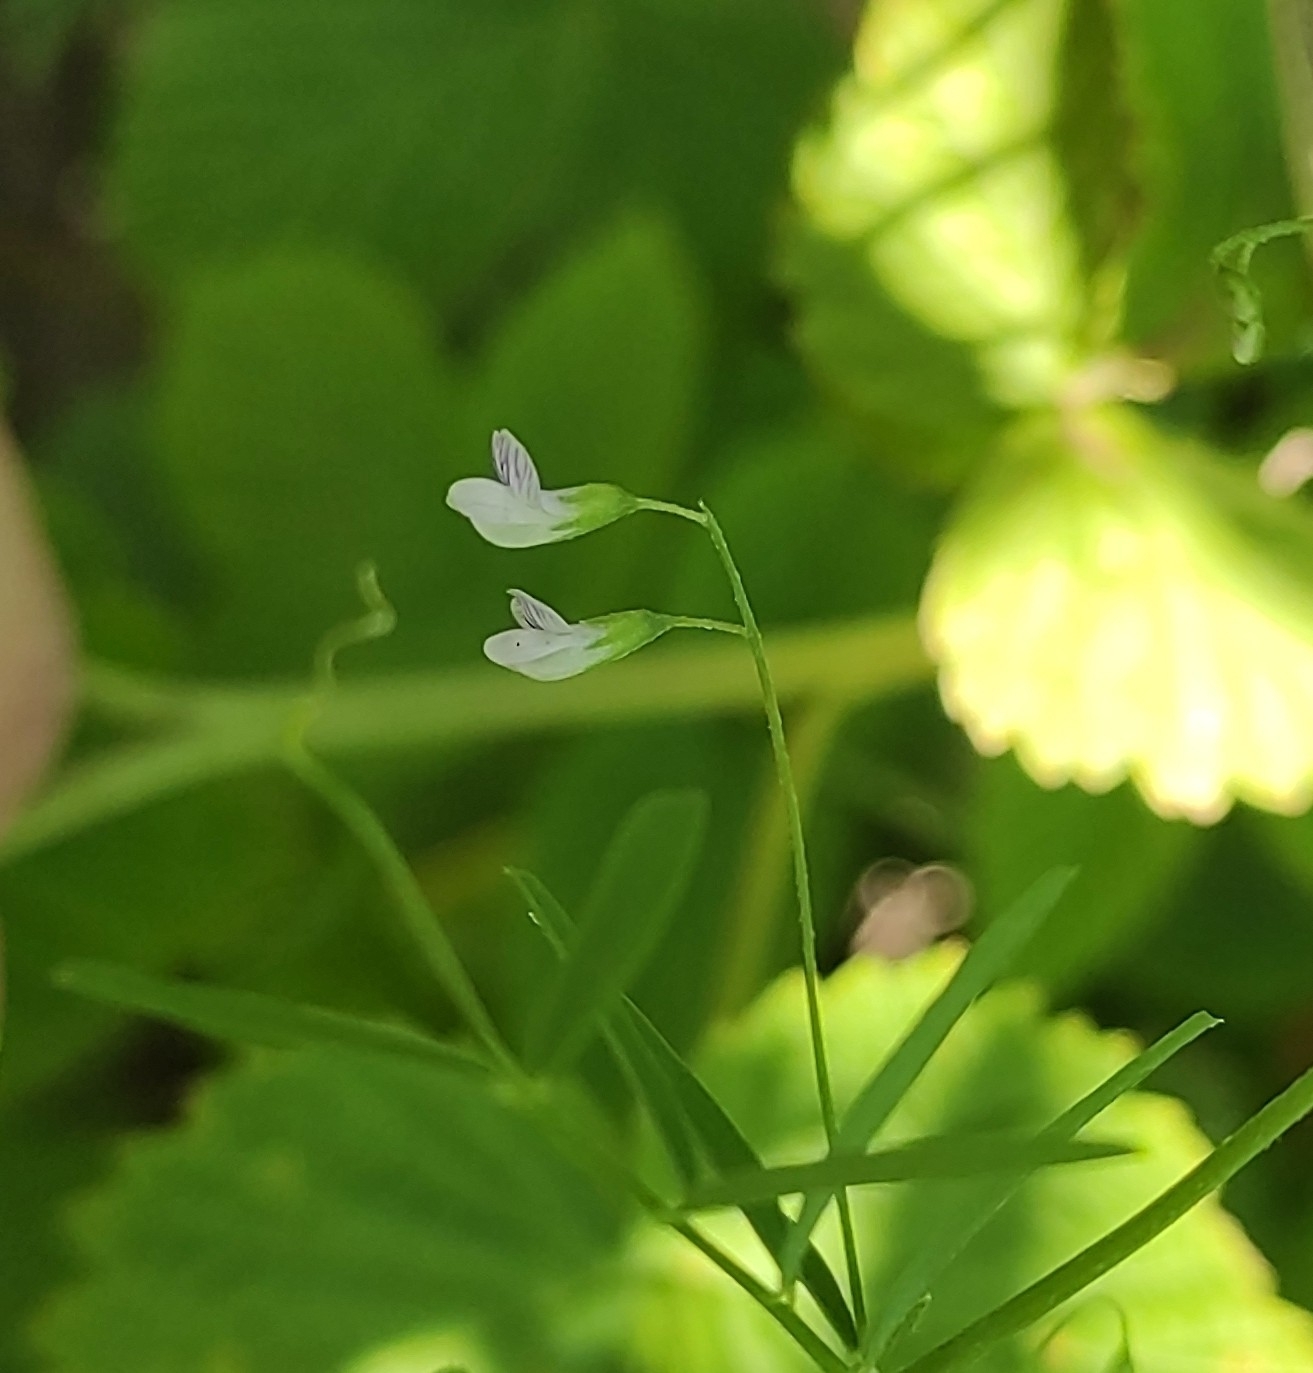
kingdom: Plantae
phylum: Tracheophyta
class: Magnoliopsida
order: Fabales
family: Fabaceae
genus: Vicia
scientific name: Vicia tetrasperma
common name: Smooth tare
